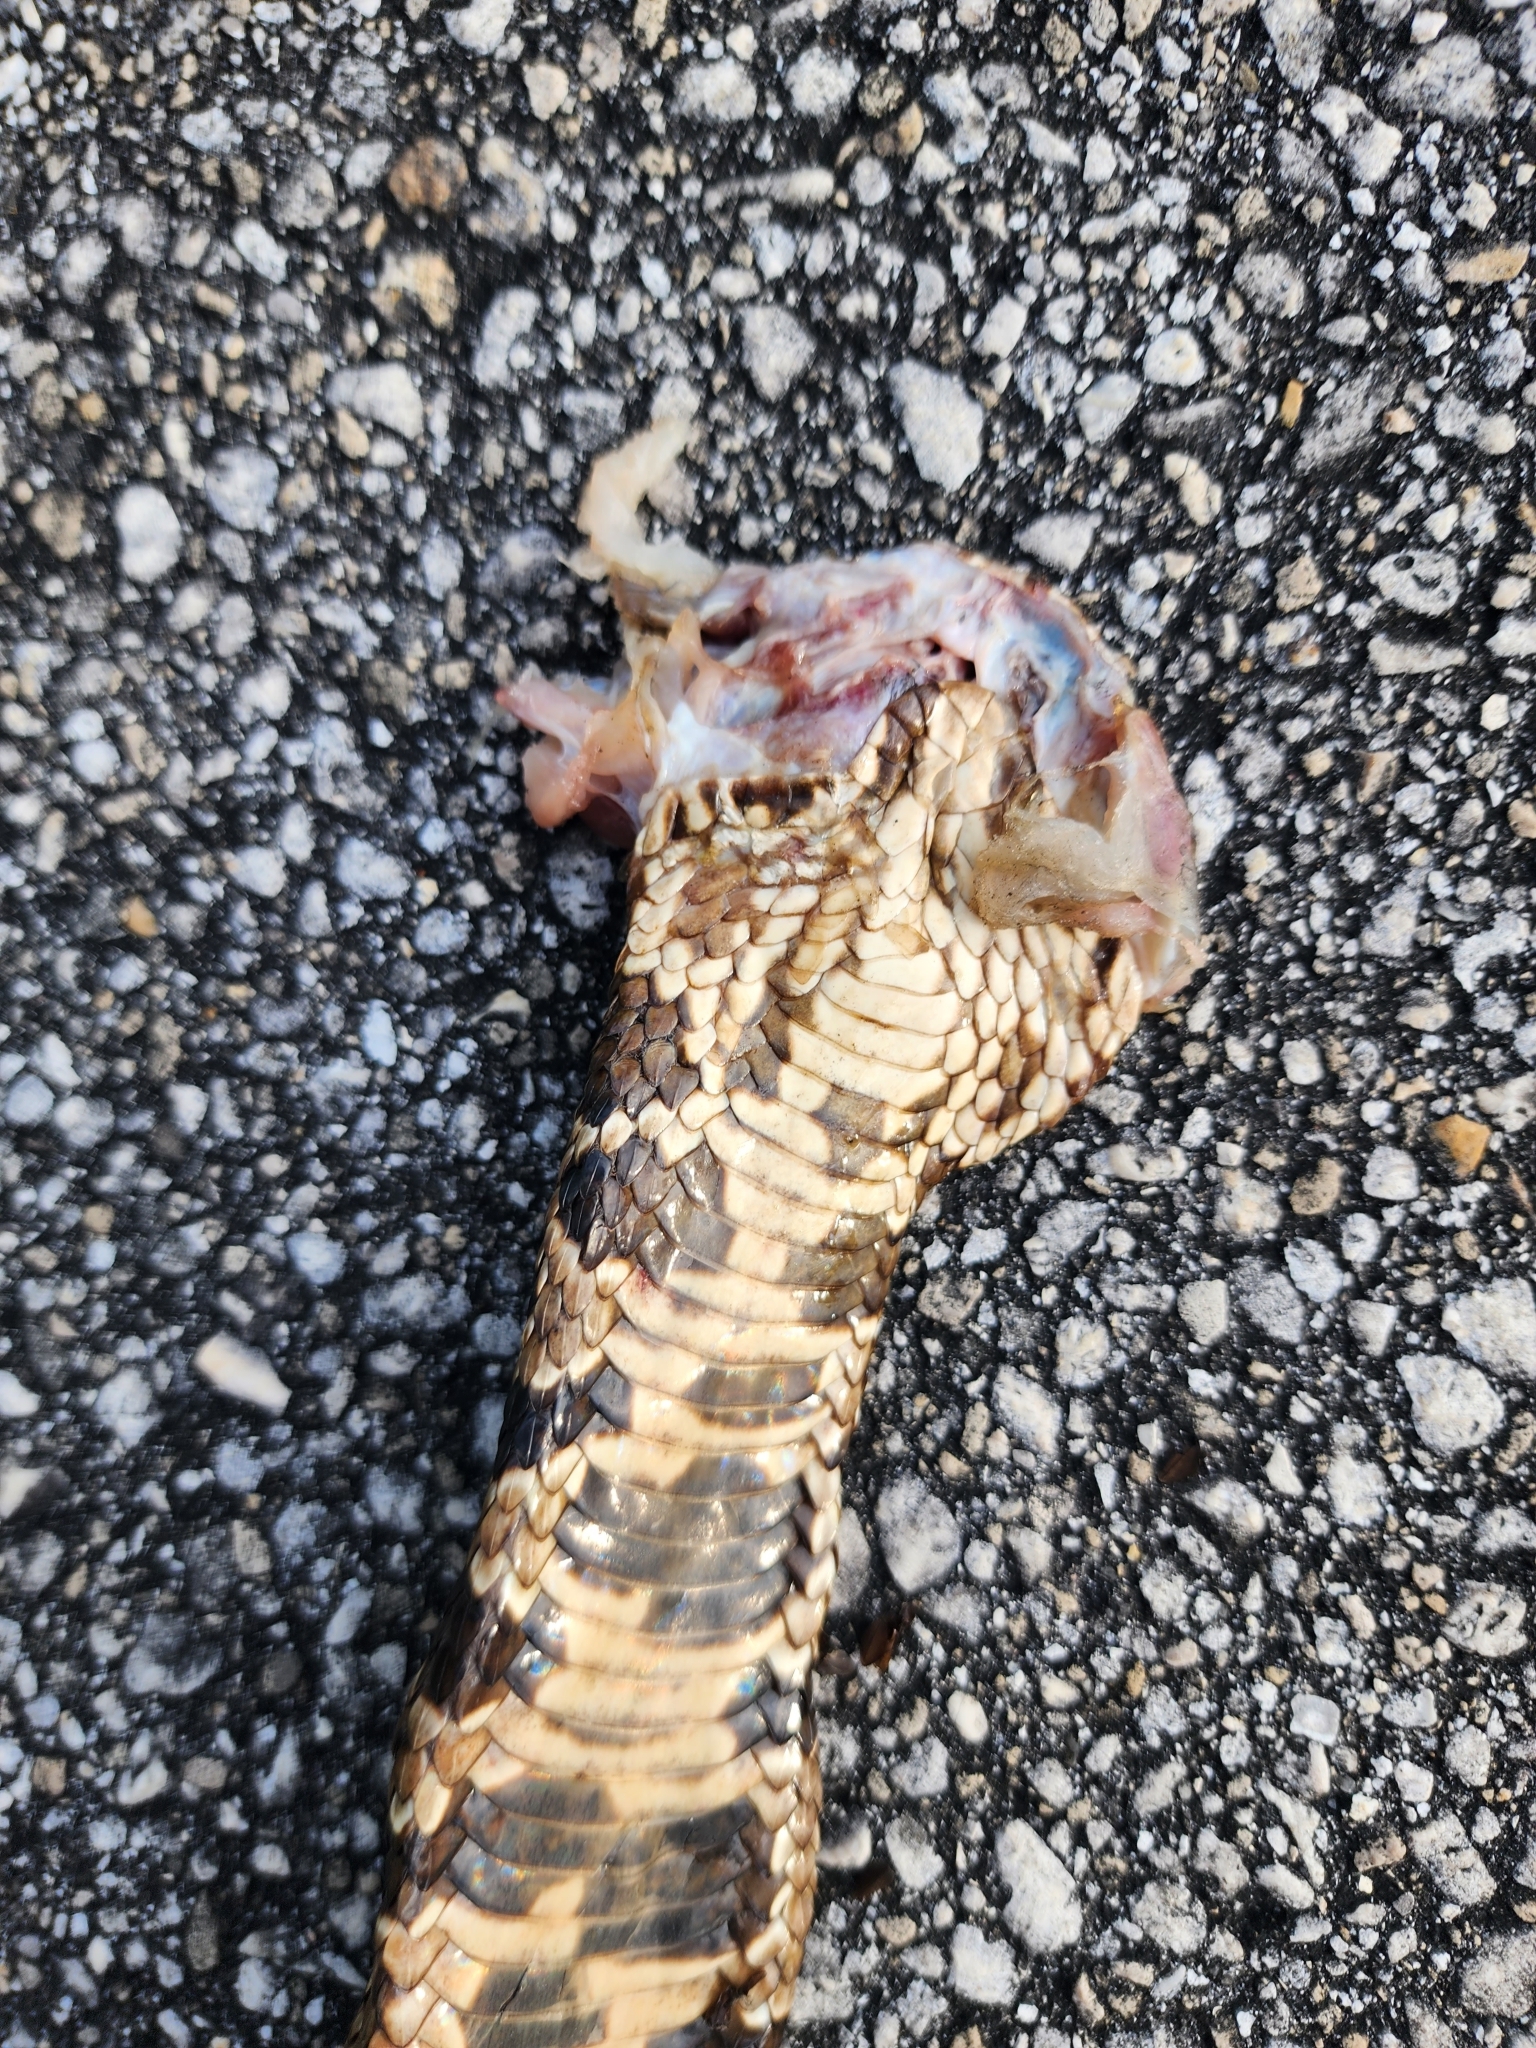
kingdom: Animalia
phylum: Chordata
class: Squamata
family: Viperidae
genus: Agkistrodon
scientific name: Agkistrodon conanti
